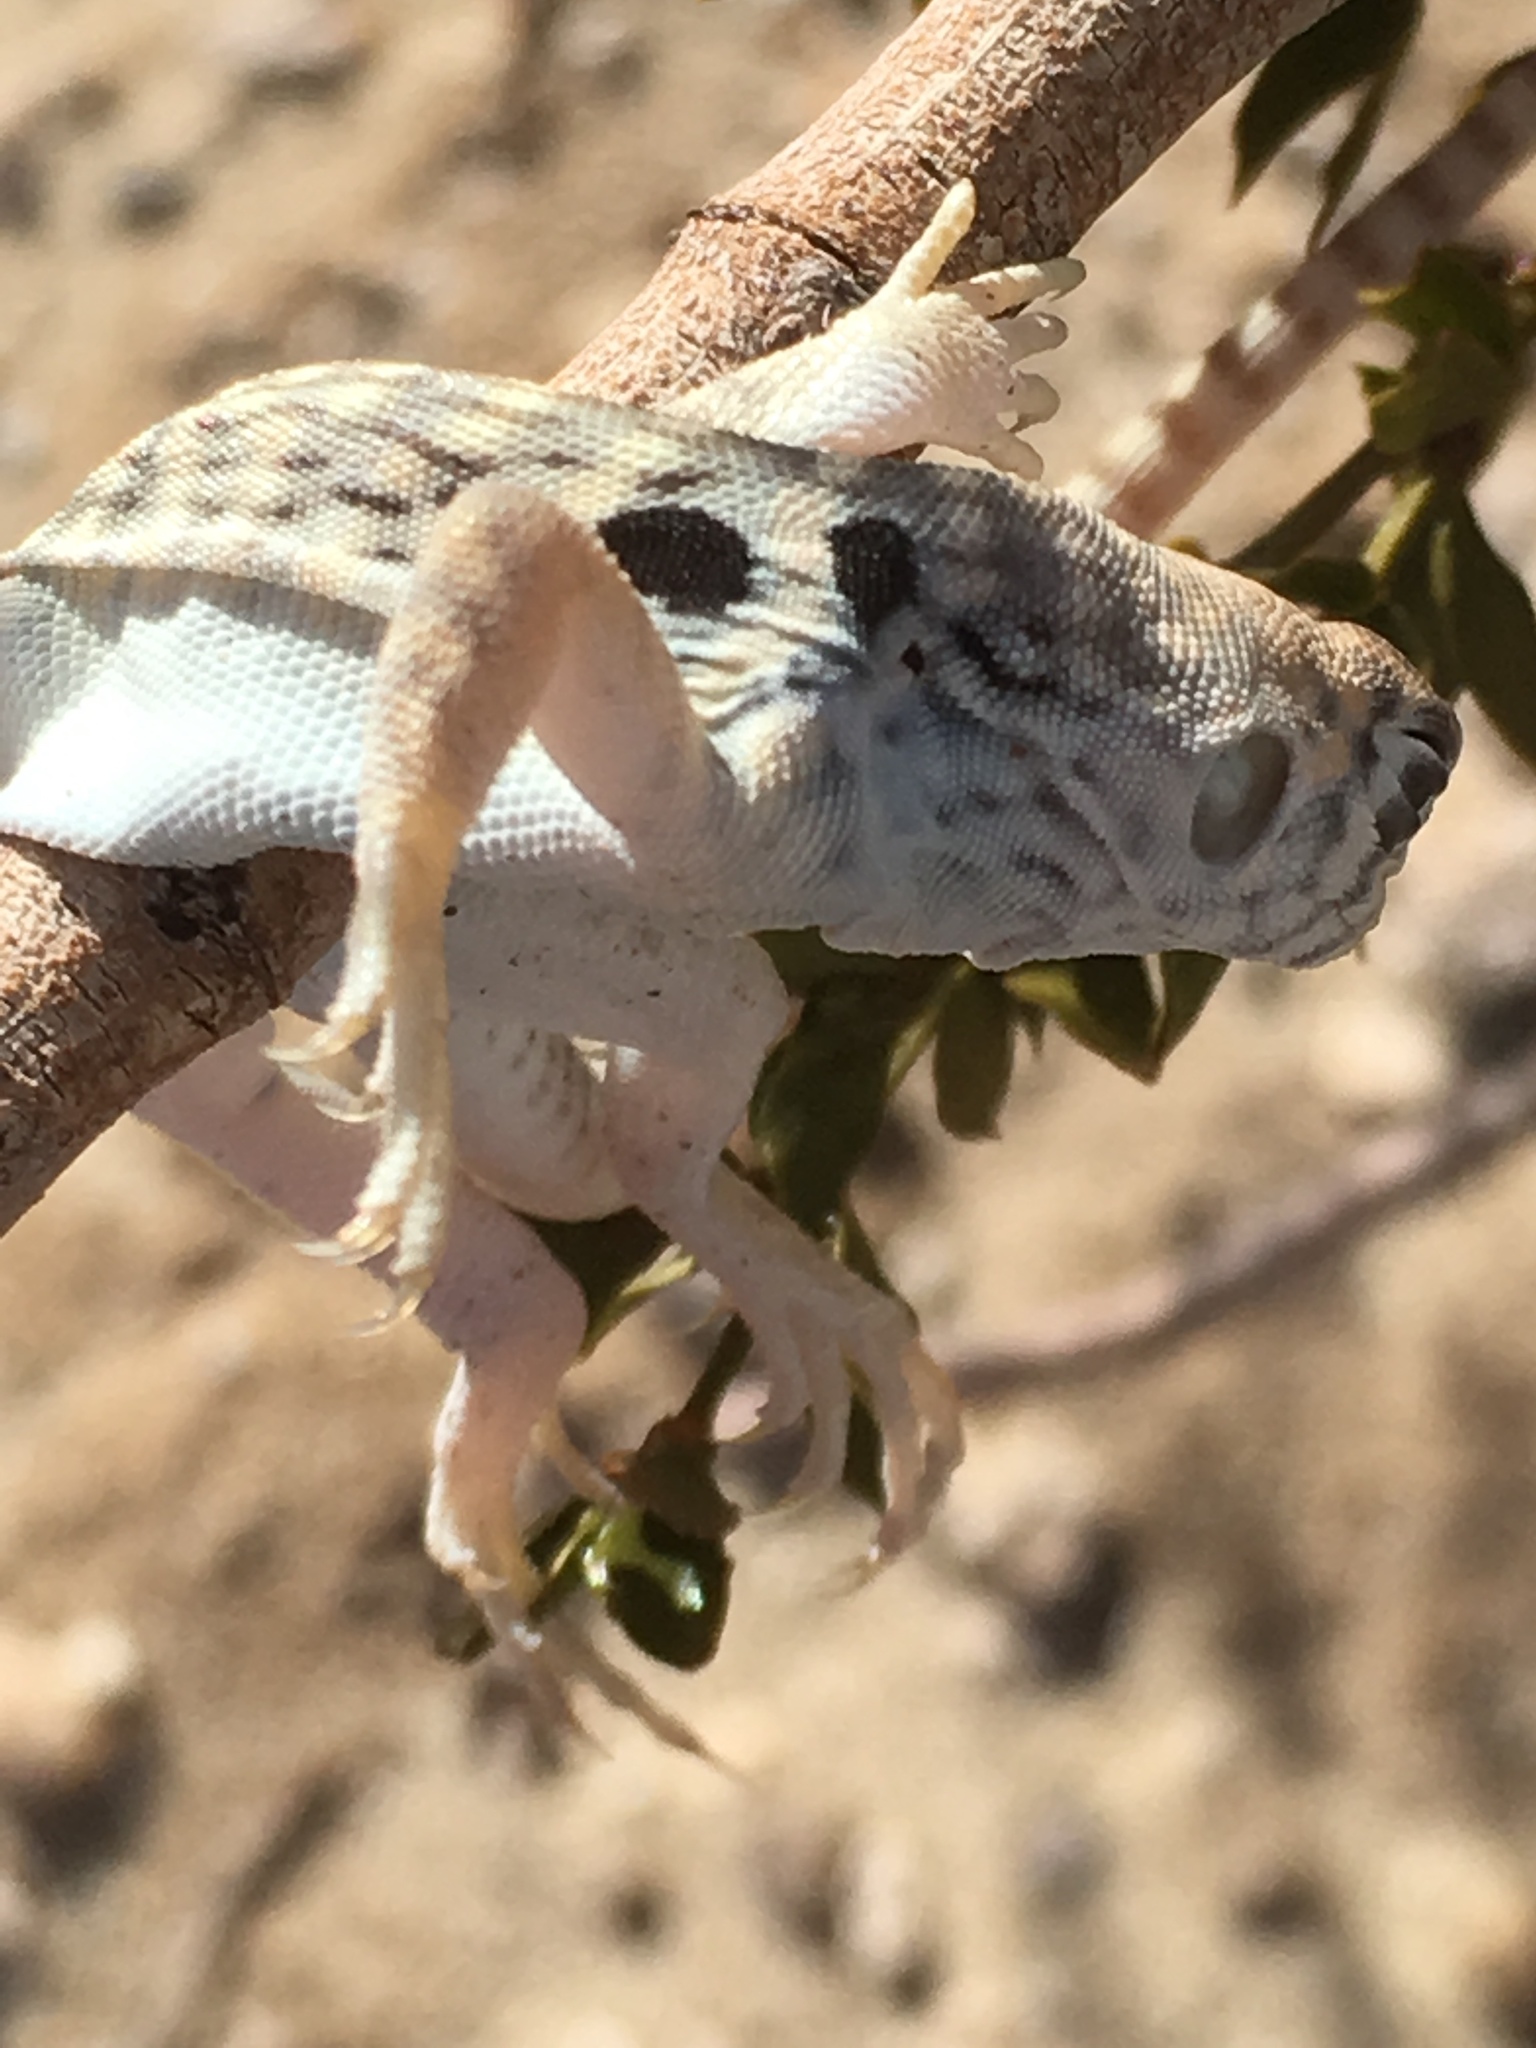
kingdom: Animalia
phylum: Chordata
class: Squamata
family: Iguanidae
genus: Dipsosaurus
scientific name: Dipsosaurus dorsalis
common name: Desert iguana
